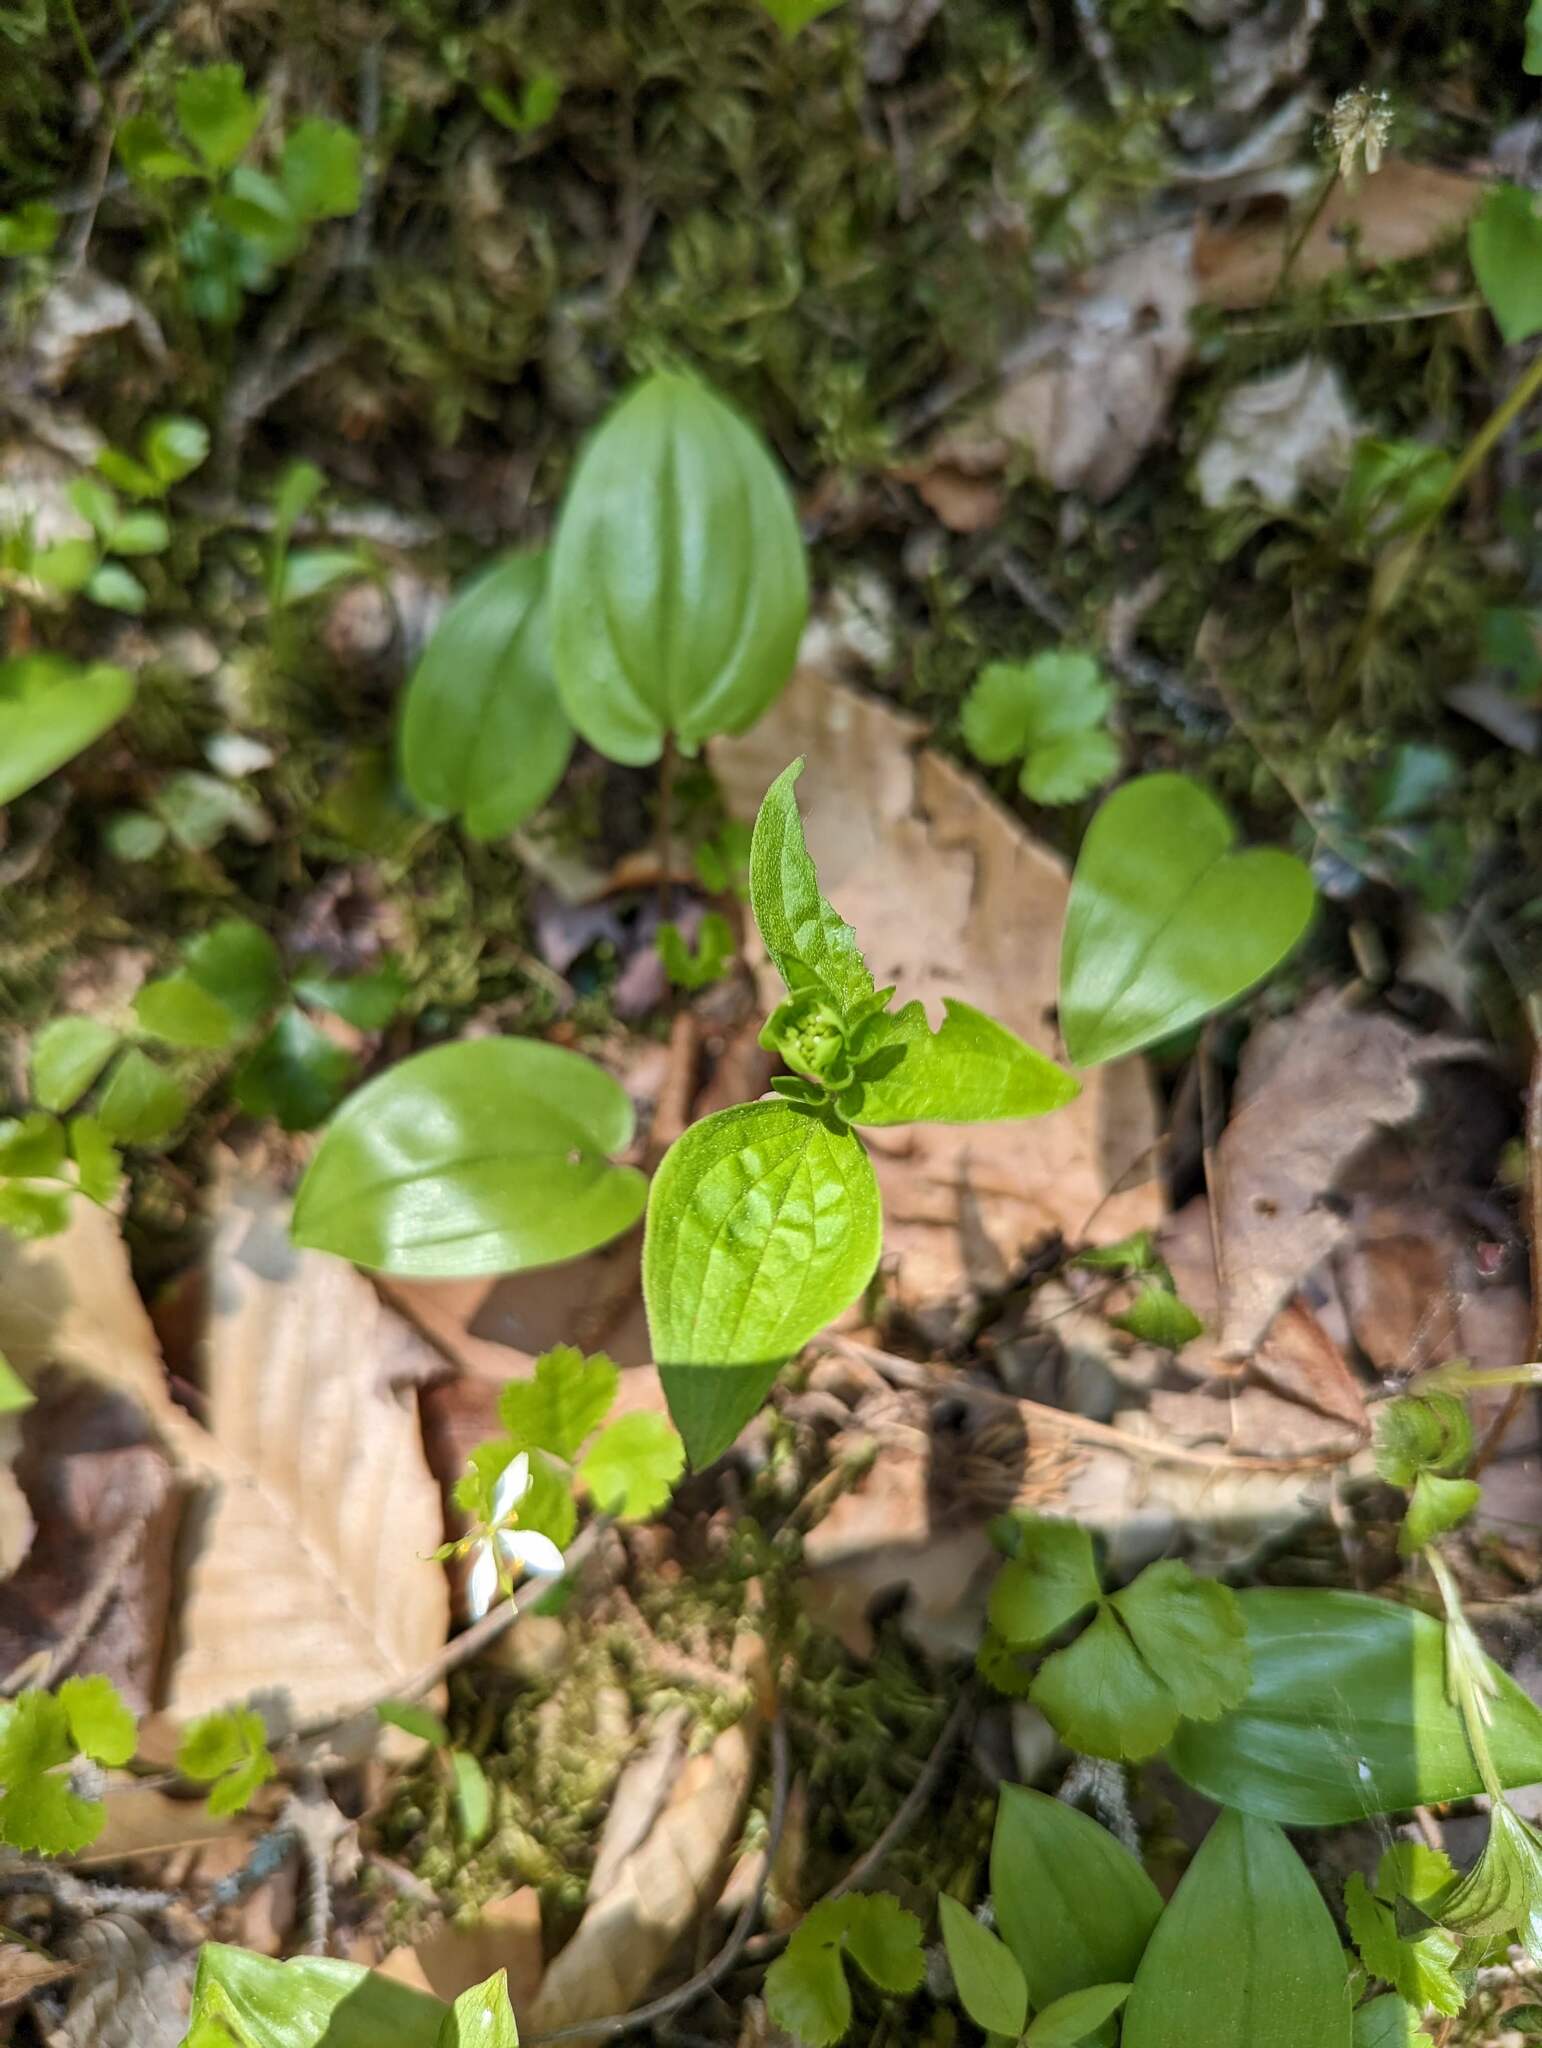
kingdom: Plantae
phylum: Tracheophyta
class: Magnoliopsida
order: Cornales
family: Cornaceae
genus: Cornus
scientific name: Cornus canadensis
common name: Creeping dogwood
